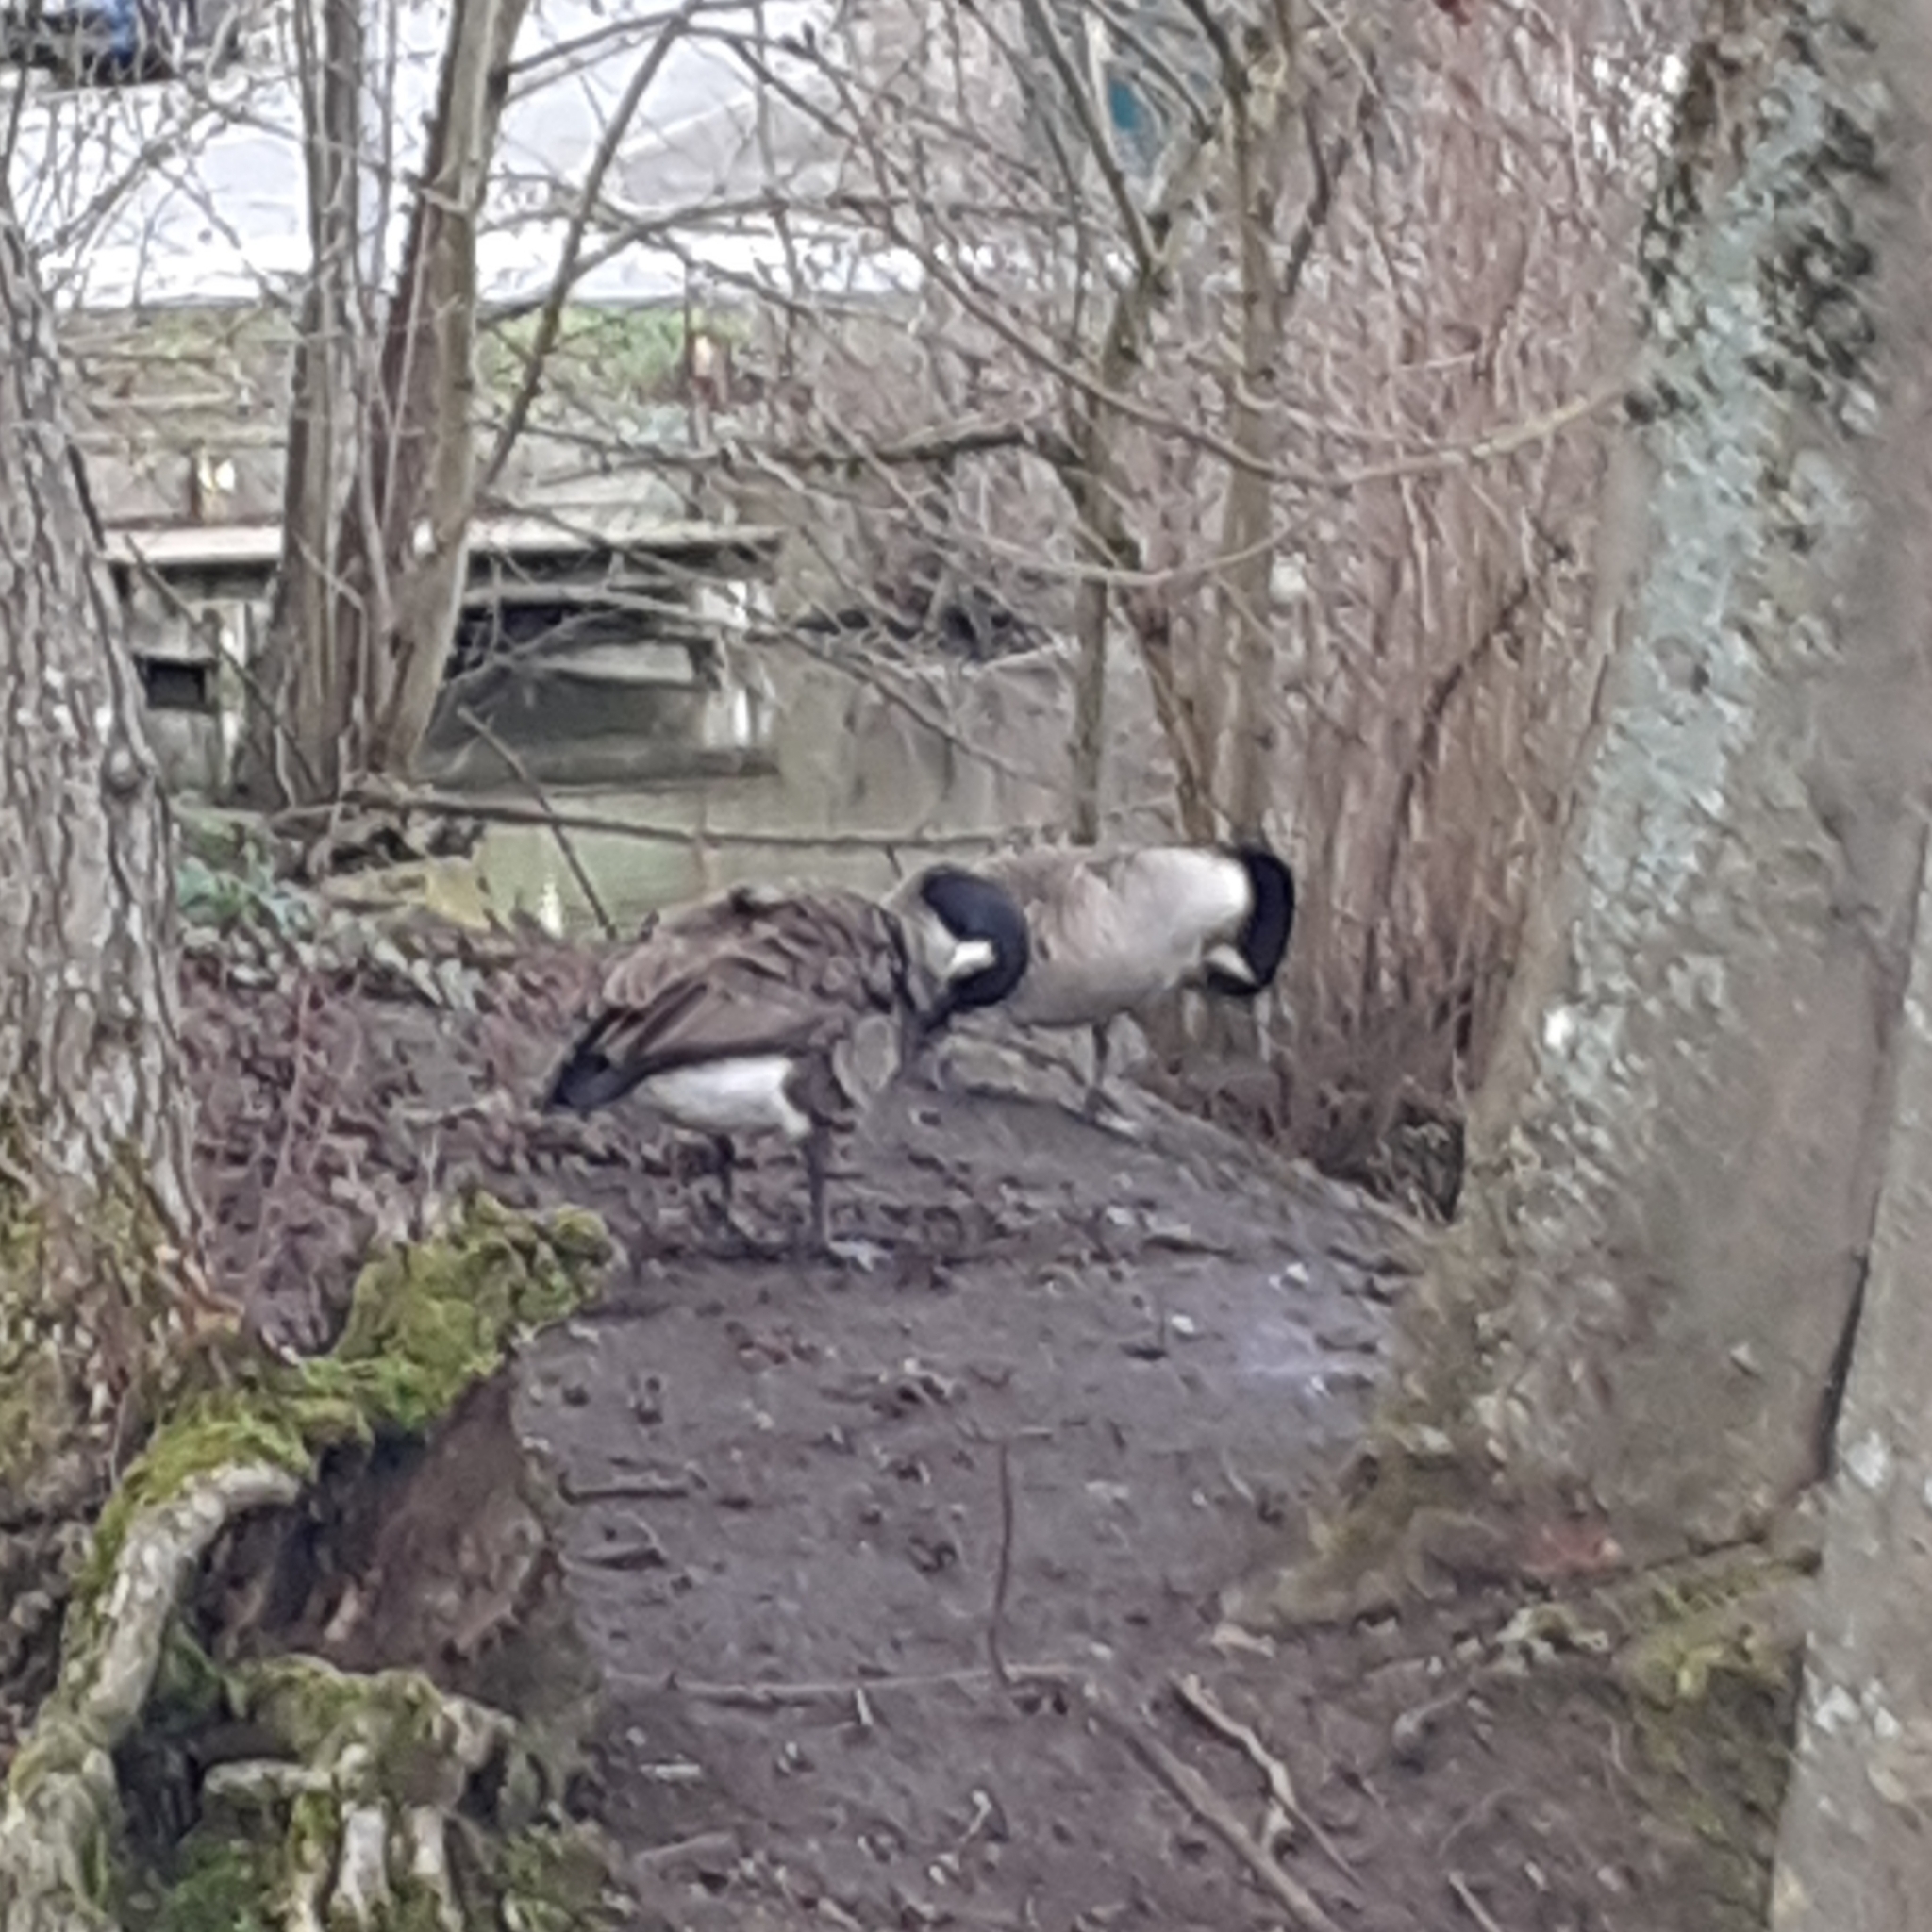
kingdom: Animalia
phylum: Chordata
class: Aves
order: Anseriformes
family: Anatidae
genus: Branta
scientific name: Branta canadensis
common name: Canada goose
